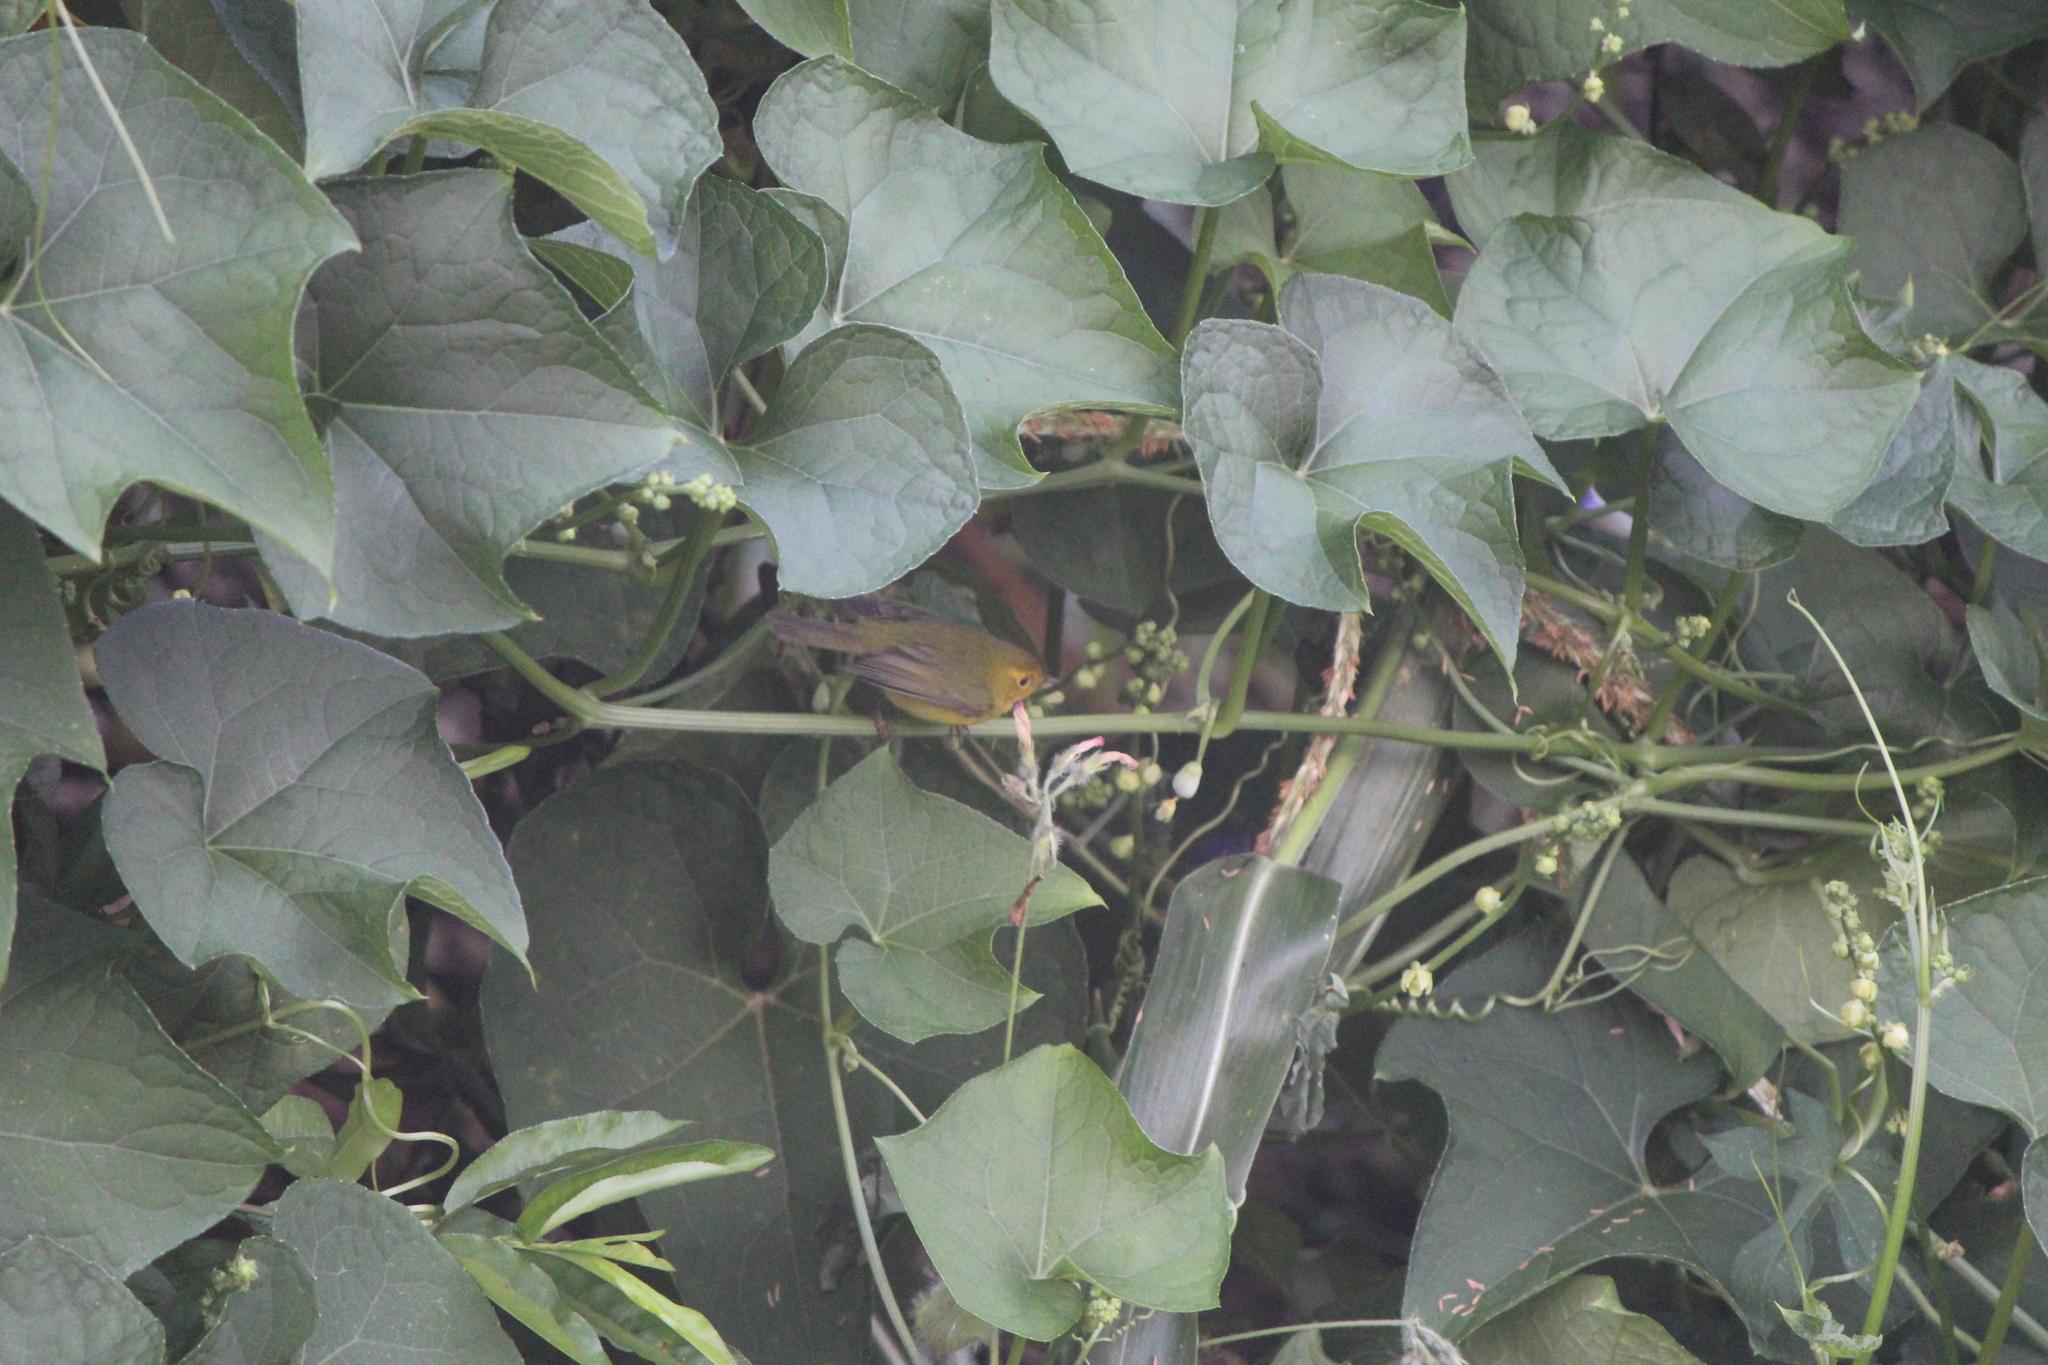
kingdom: Animalia
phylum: Chordata
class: Aves
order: Passeriformes
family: Parulidae
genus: Cardellina
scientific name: Cardellina pusilla
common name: Wilson's warbler
